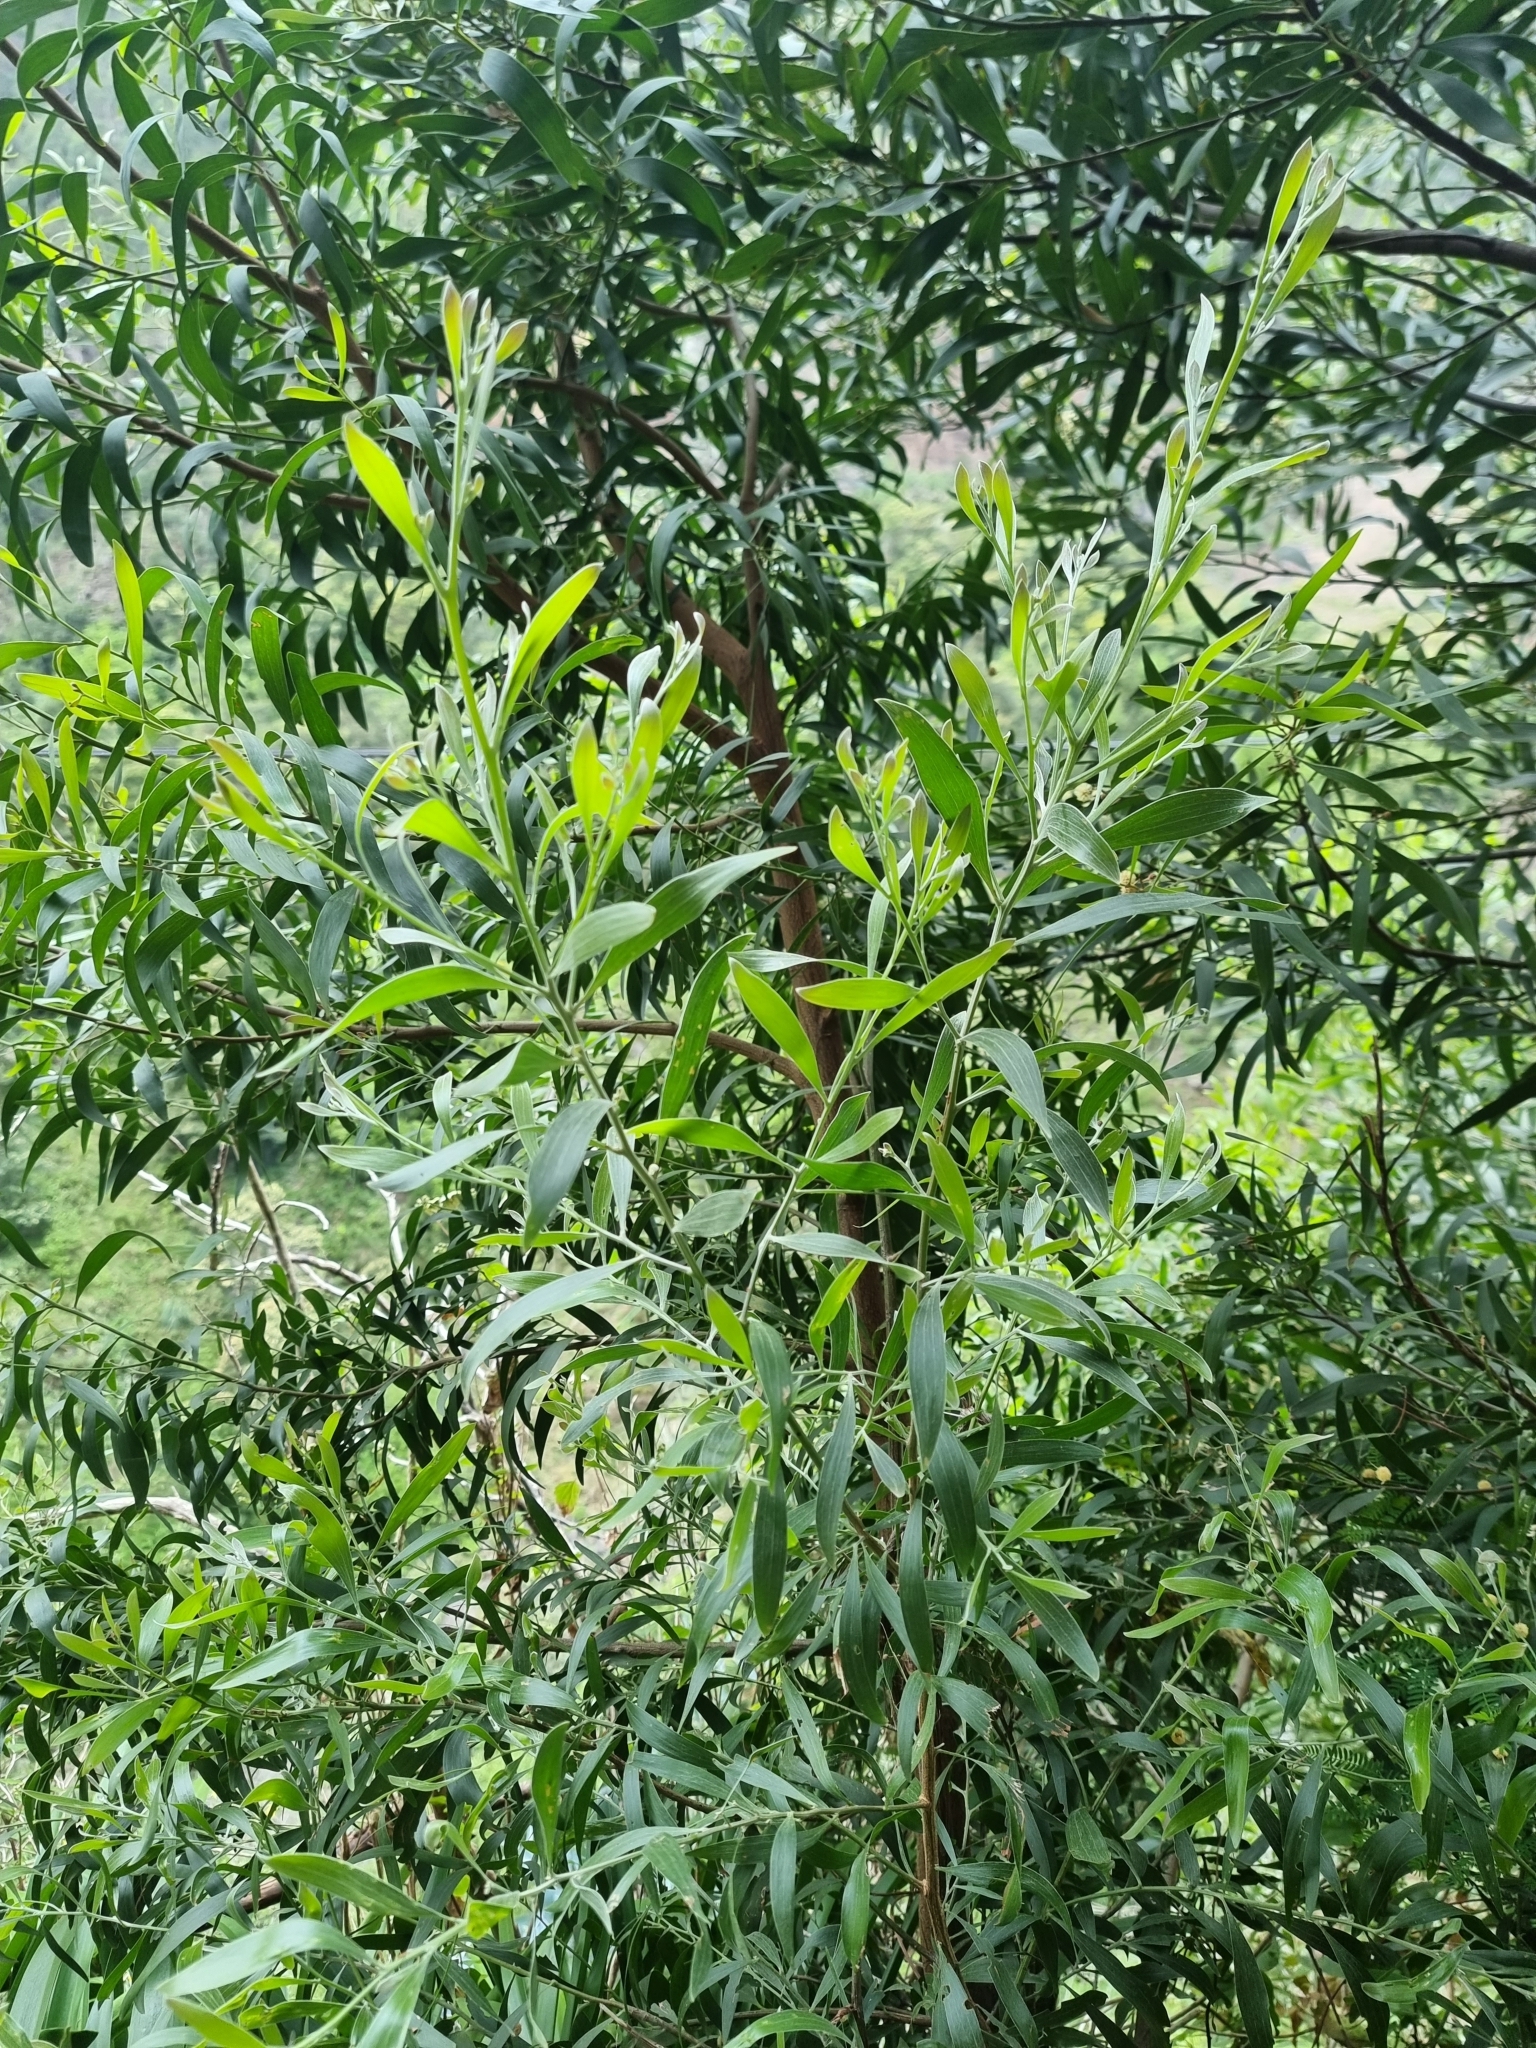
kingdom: Plantae
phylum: Tracheophyta
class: Magnoliopsida
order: Fabales
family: Fabaceae
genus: Acacia
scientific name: Acacia melanoxylon
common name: Blackwood
